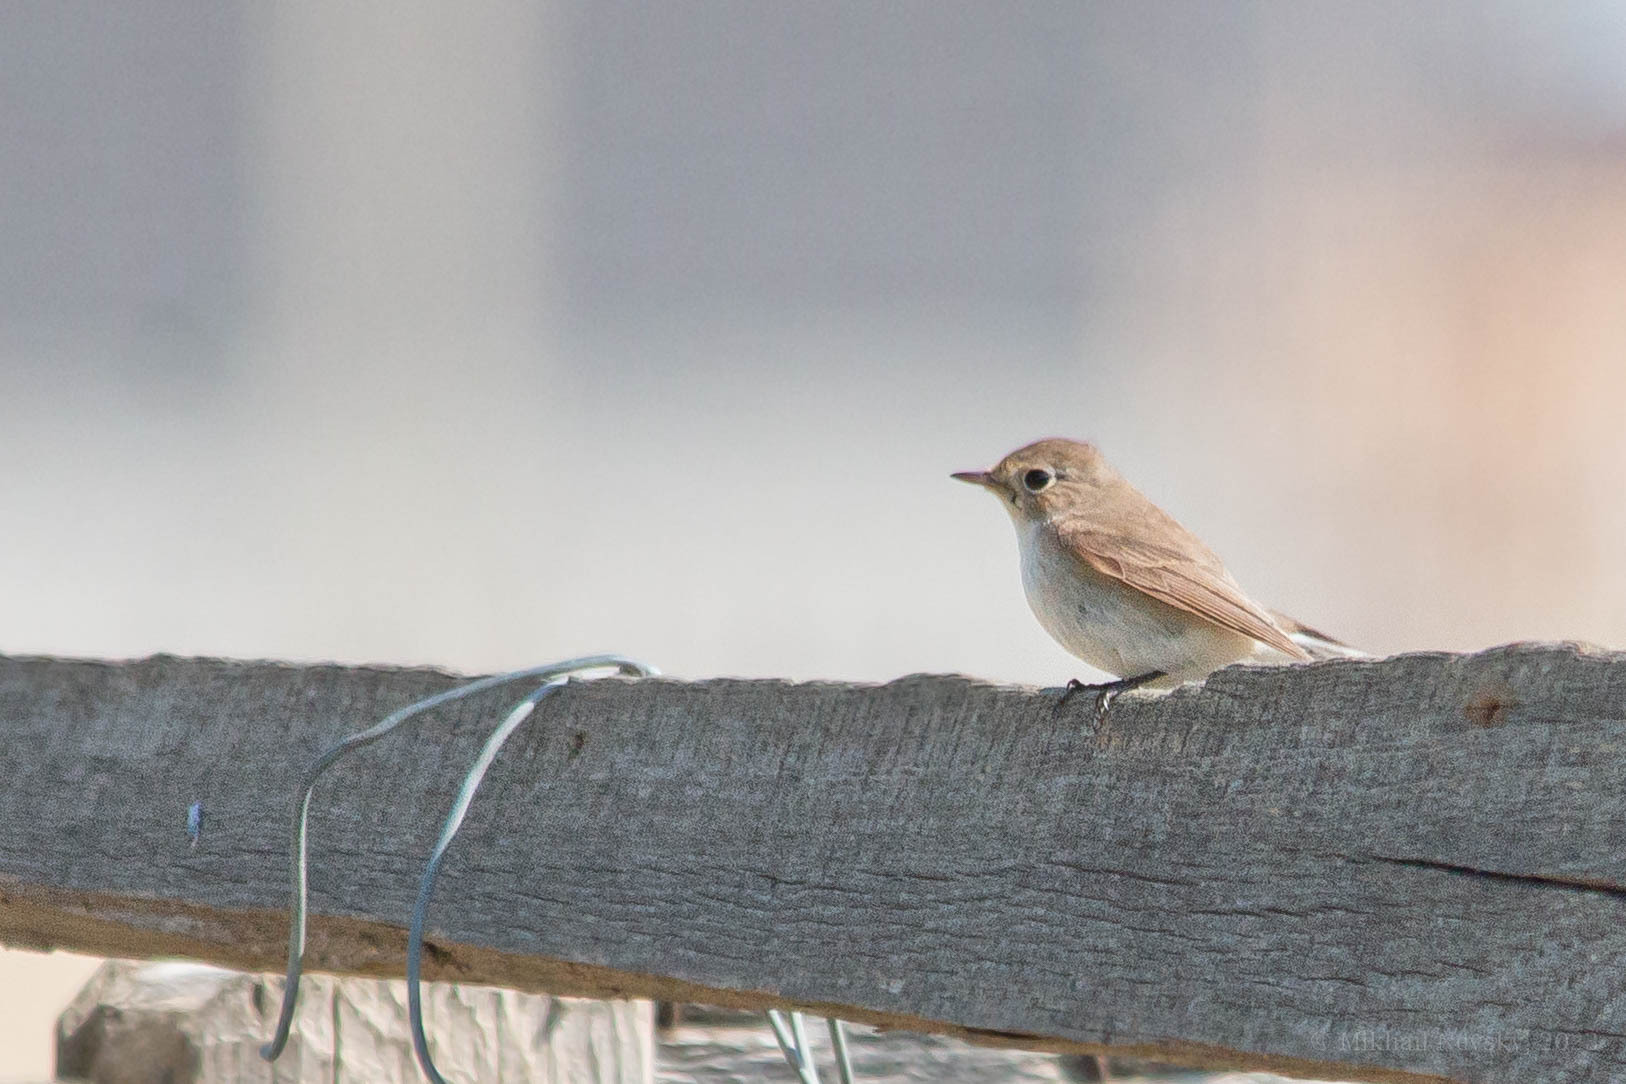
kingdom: Animalia
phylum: Chordata
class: Aves
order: Passeriformes
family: Muscicapidae
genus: Ficedula
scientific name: Ficedula parva
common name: Red-breasted flycatcher
